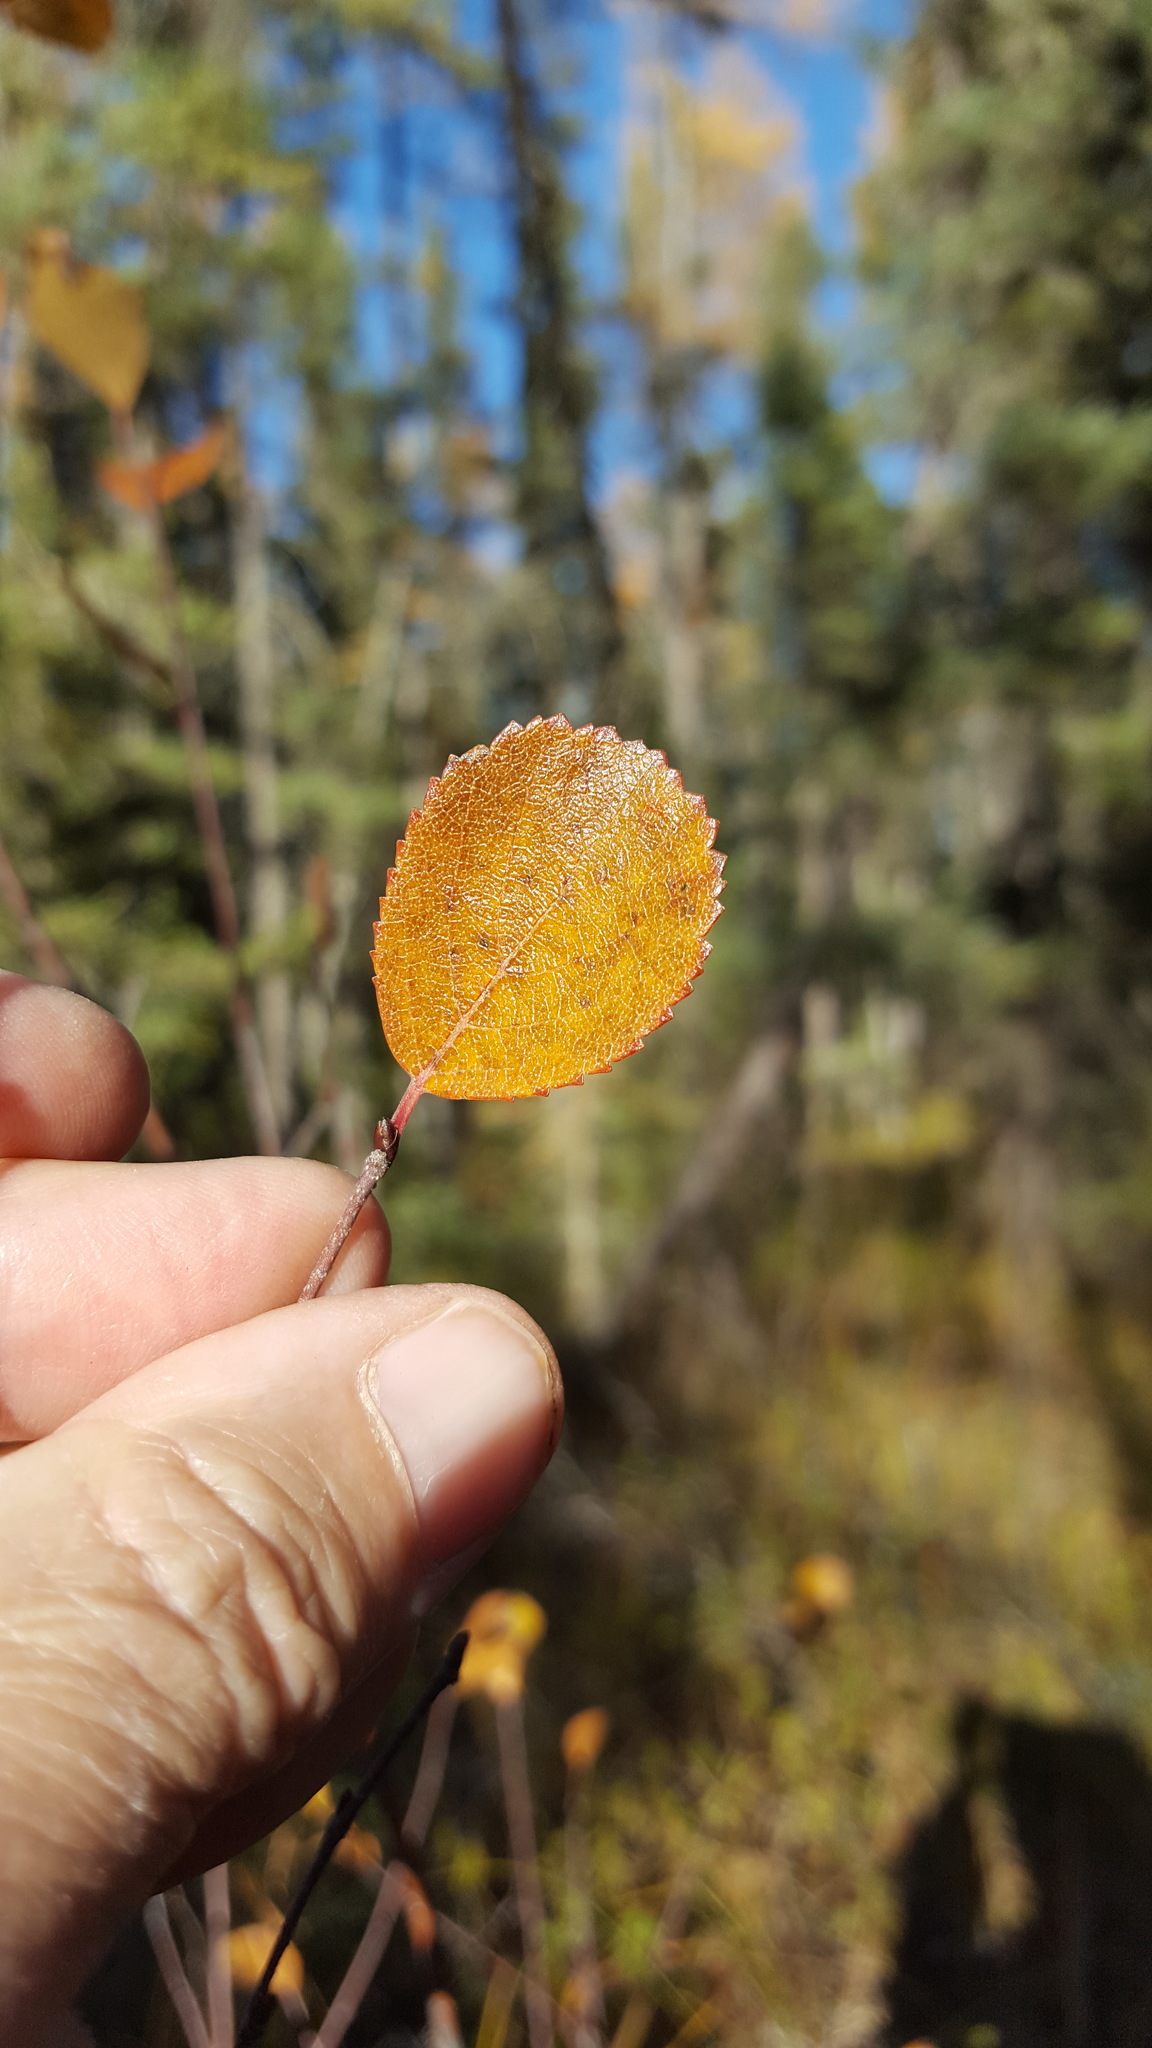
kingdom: Plantae
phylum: Tracheophyta
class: Magnoliopsida
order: Fagales
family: Betulaceae
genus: Betula
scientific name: Betula pumila
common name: Bog birch
